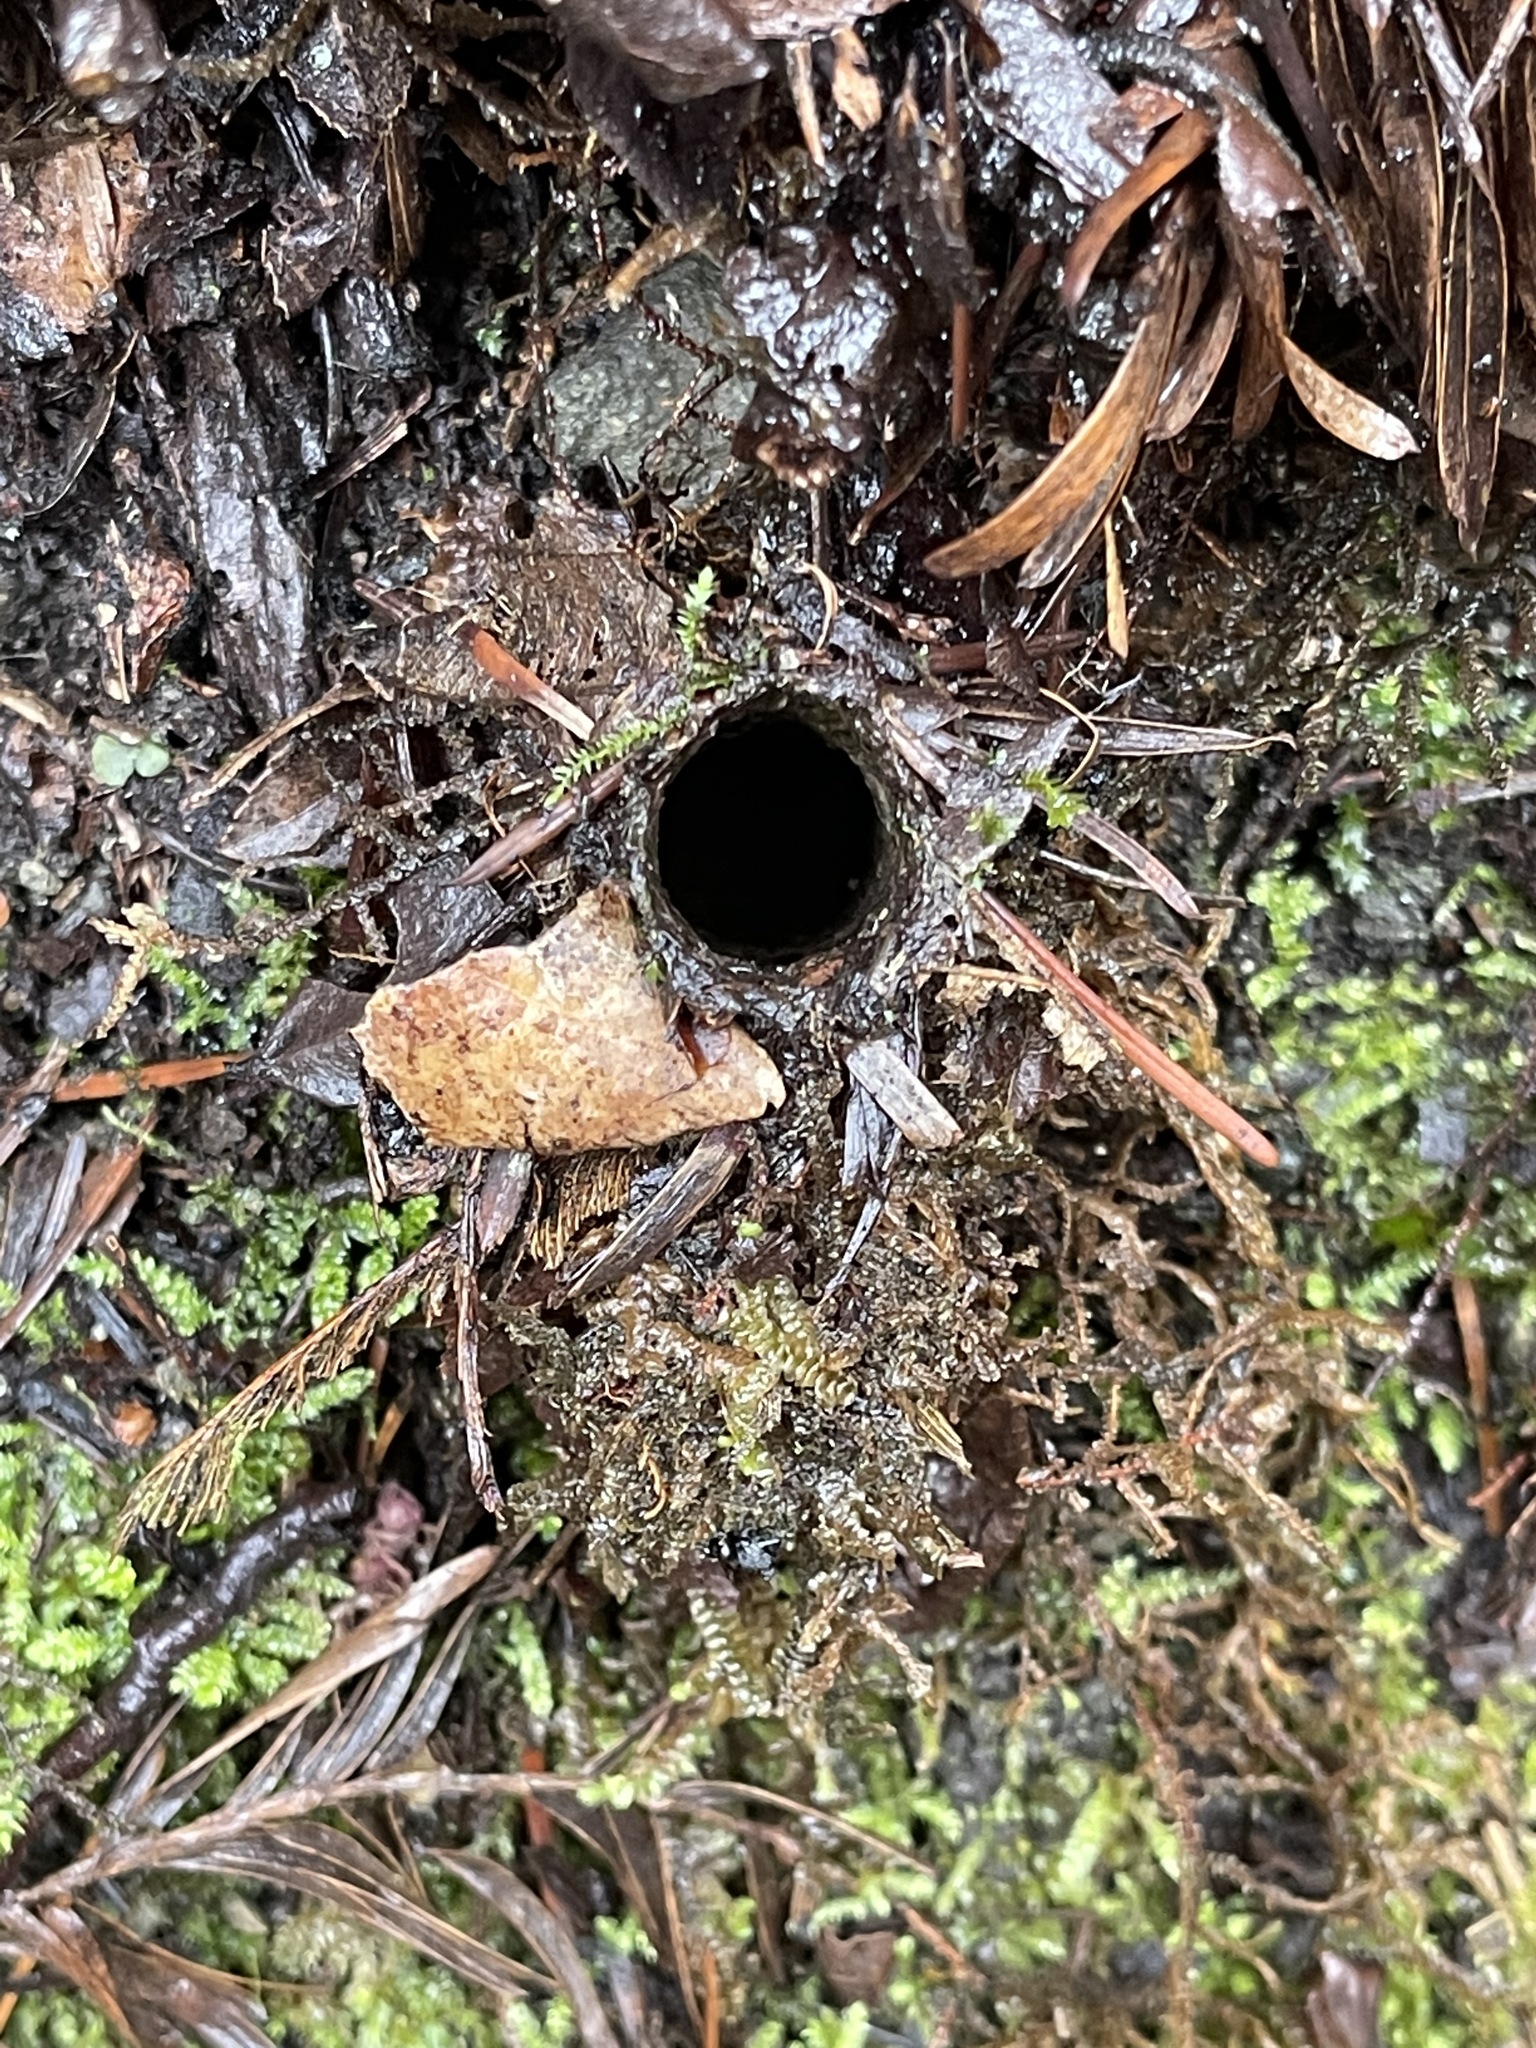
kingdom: Animalia
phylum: Arthropoda
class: Arachnida
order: Araneae
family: Antrodiaetidae
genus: Atypoides
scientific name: Atypoides riversi
